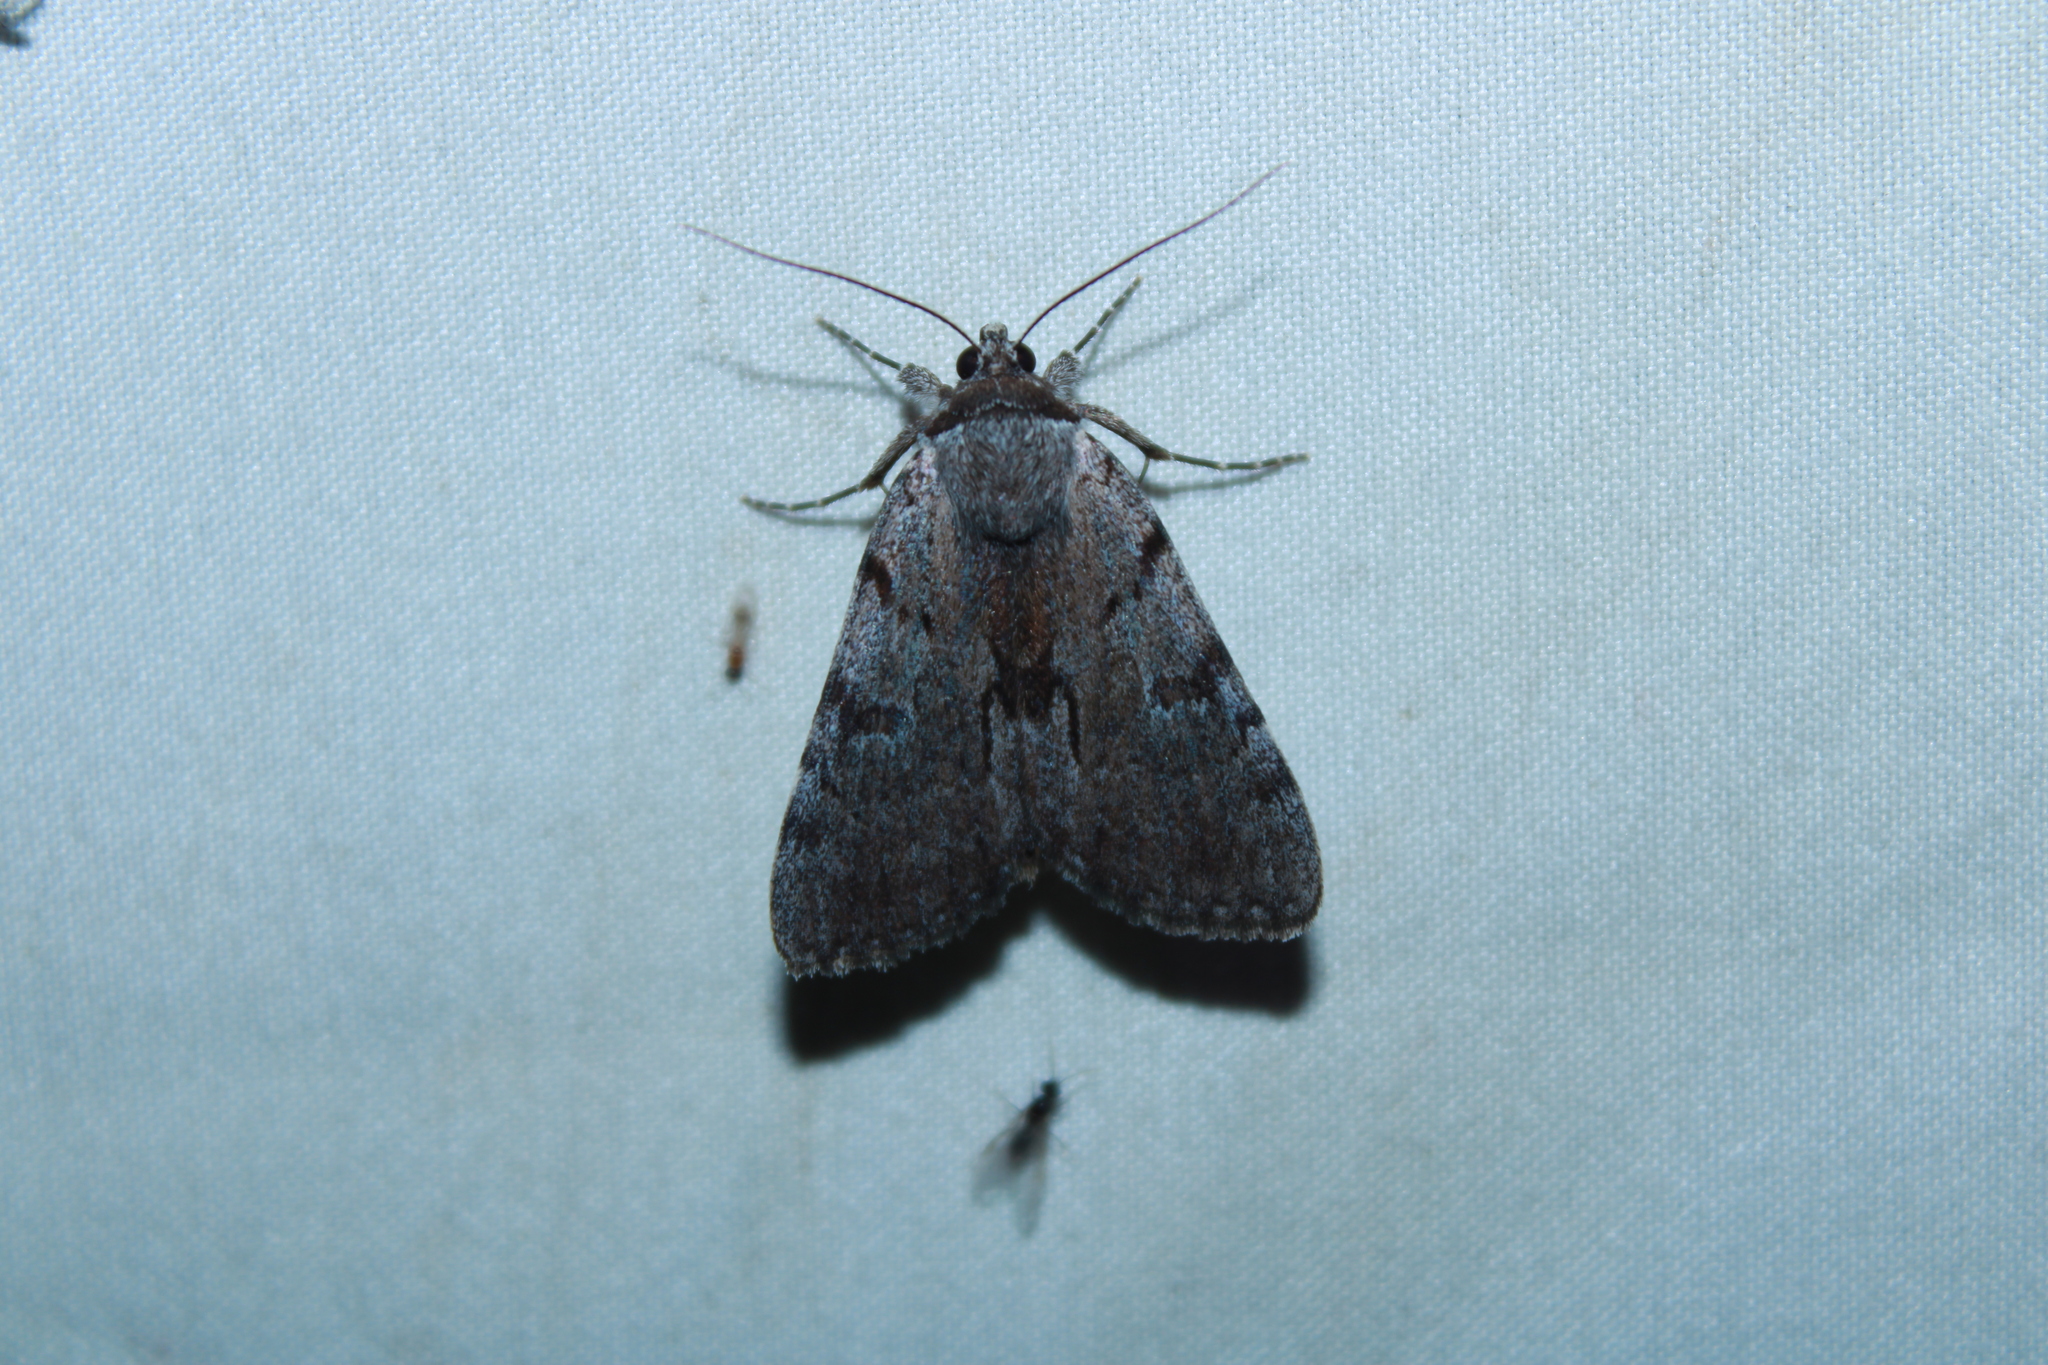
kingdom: Animalia
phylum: Arthropoda
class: Insecta
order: Lepidoptera
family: Erebidae
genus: Catocala
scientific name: Catocala sordida
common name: Sordid underwing
